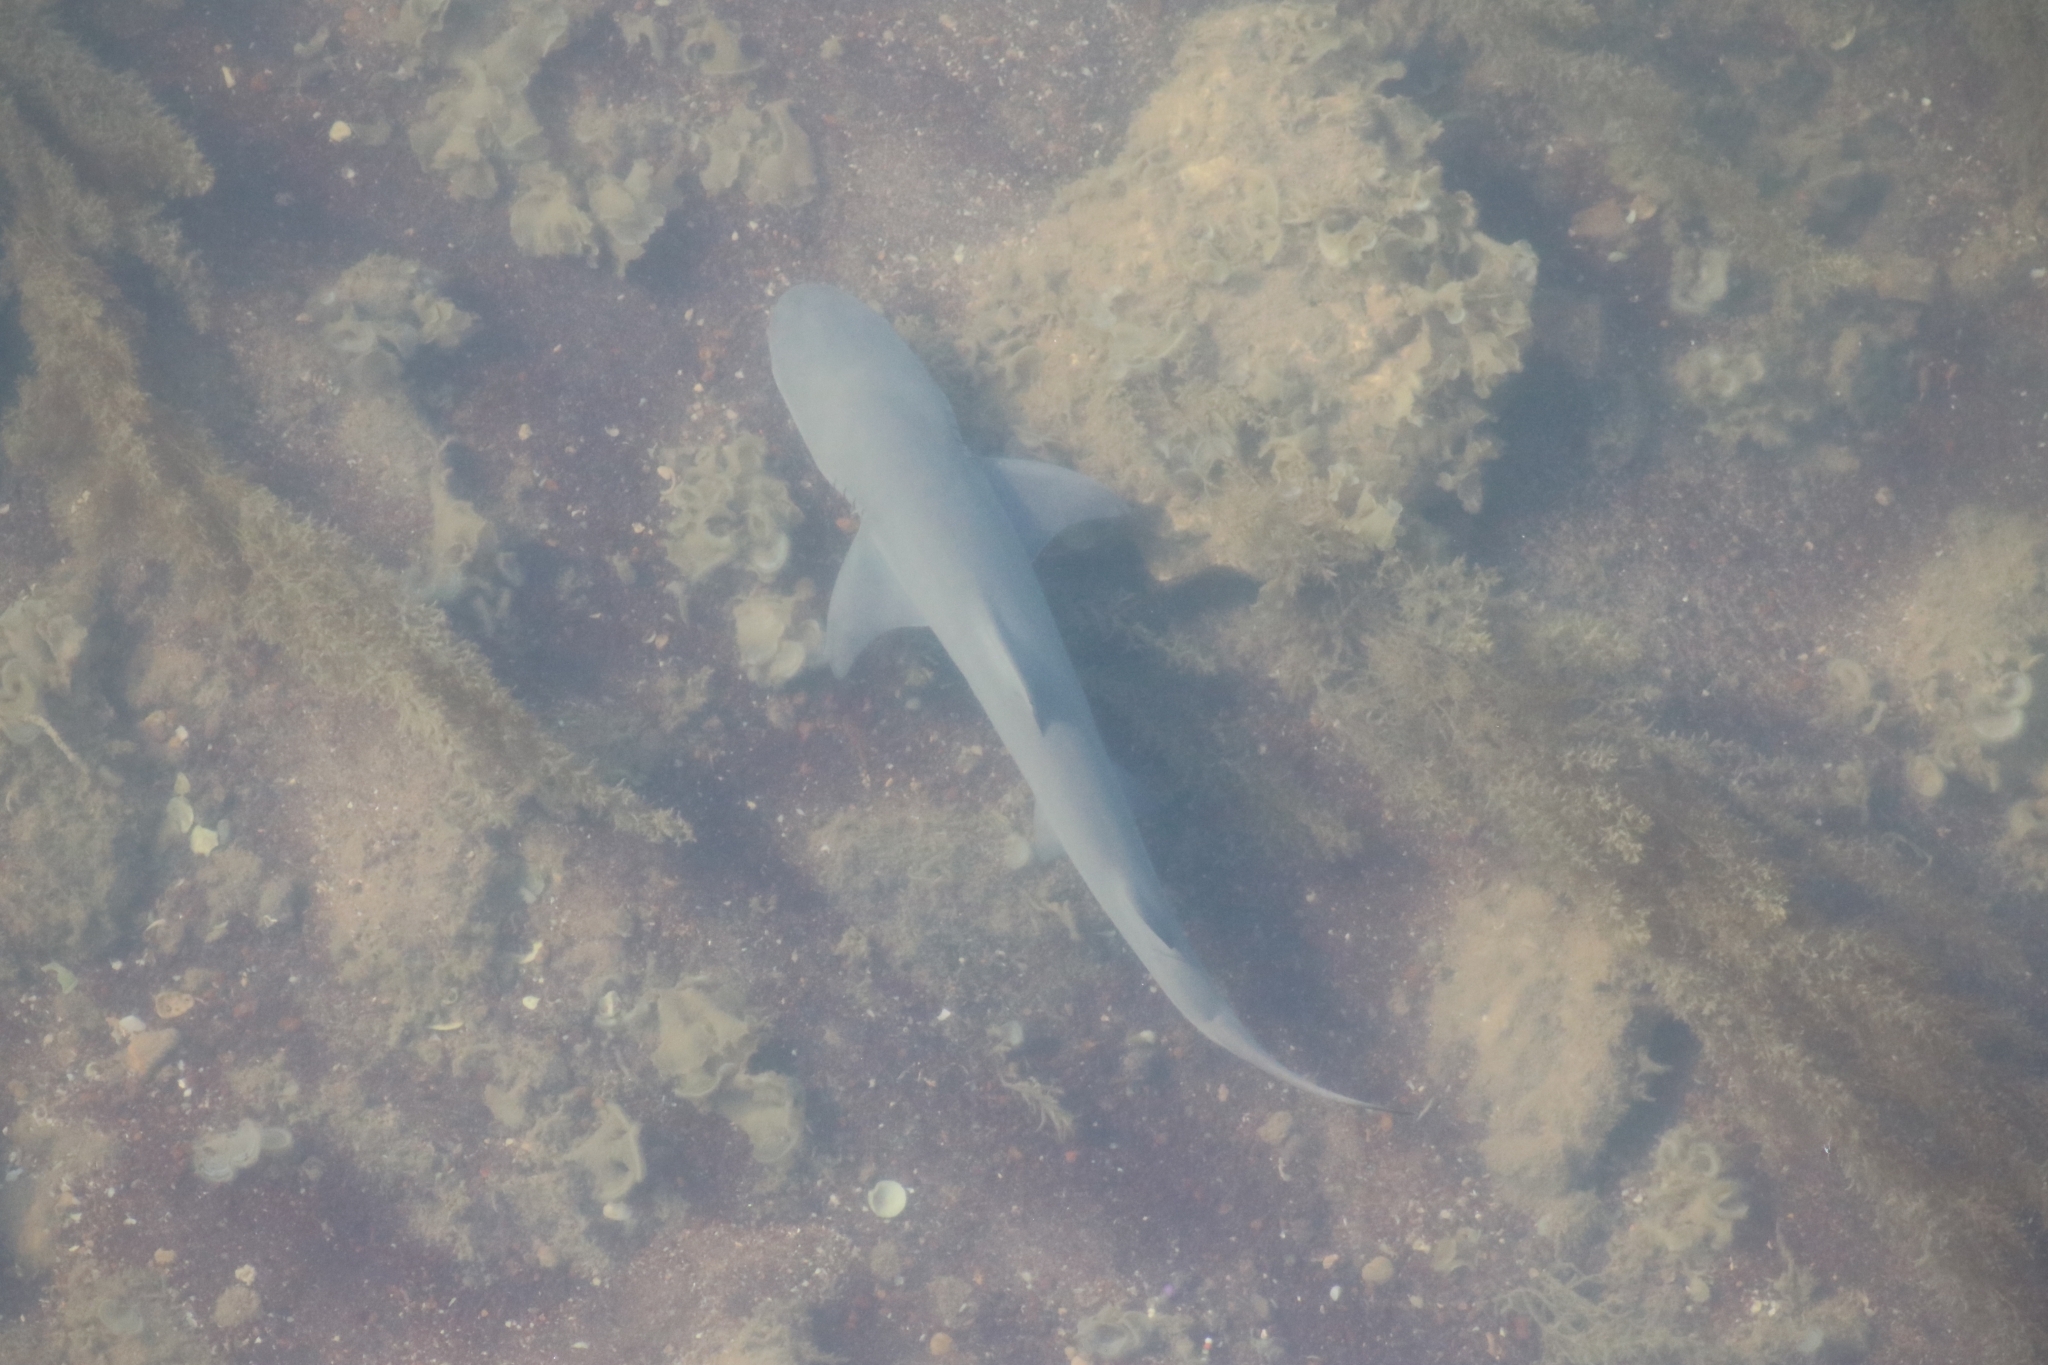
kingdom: Animalia
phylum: Chordata
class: Elasmobranchii
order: Carcharhiniformes
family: Carcharhinidae
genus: Negaprion
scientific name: Negaprion acutidens
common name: Lemon shark
